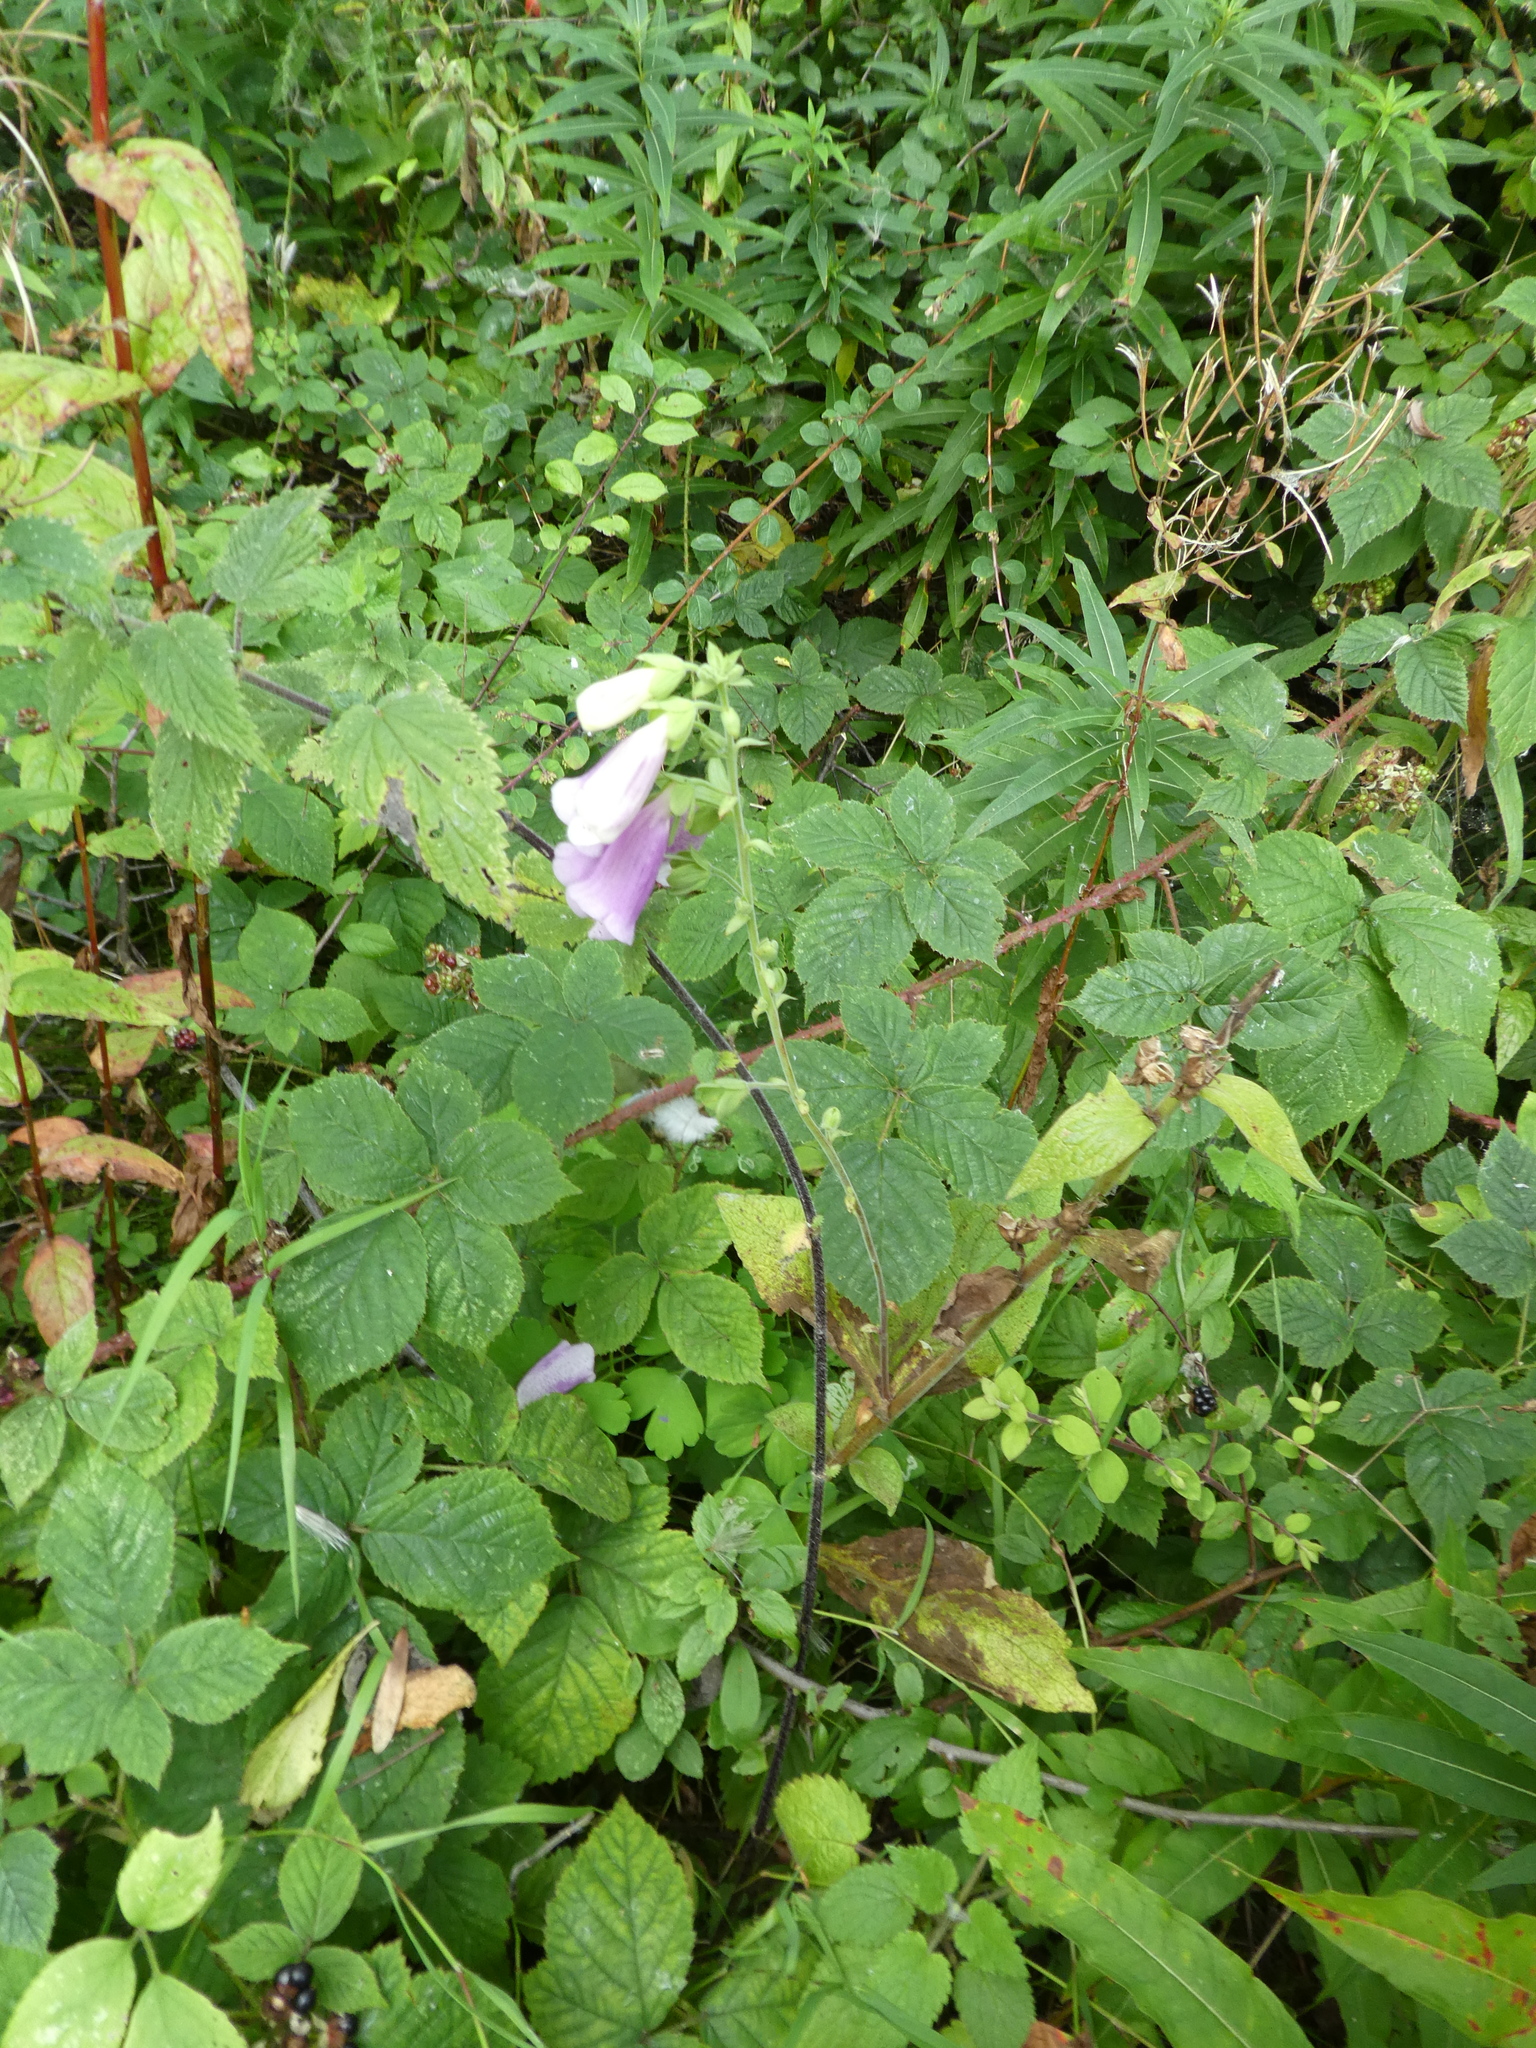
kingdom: Plantae
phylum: Tracheophyta
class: Magnoliopsida
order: Lamiales
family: Plantaginaceae
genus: Digitalis
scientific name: Digitalis purpurea
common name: Foxglove
